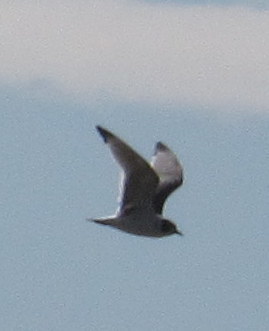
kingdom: Animalia
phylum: Chordata
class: Aves
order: Charadriiformes
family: Laridae
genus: Leucophaeus
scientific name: Leucophaeus pipixcan
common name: Franklin's gull
